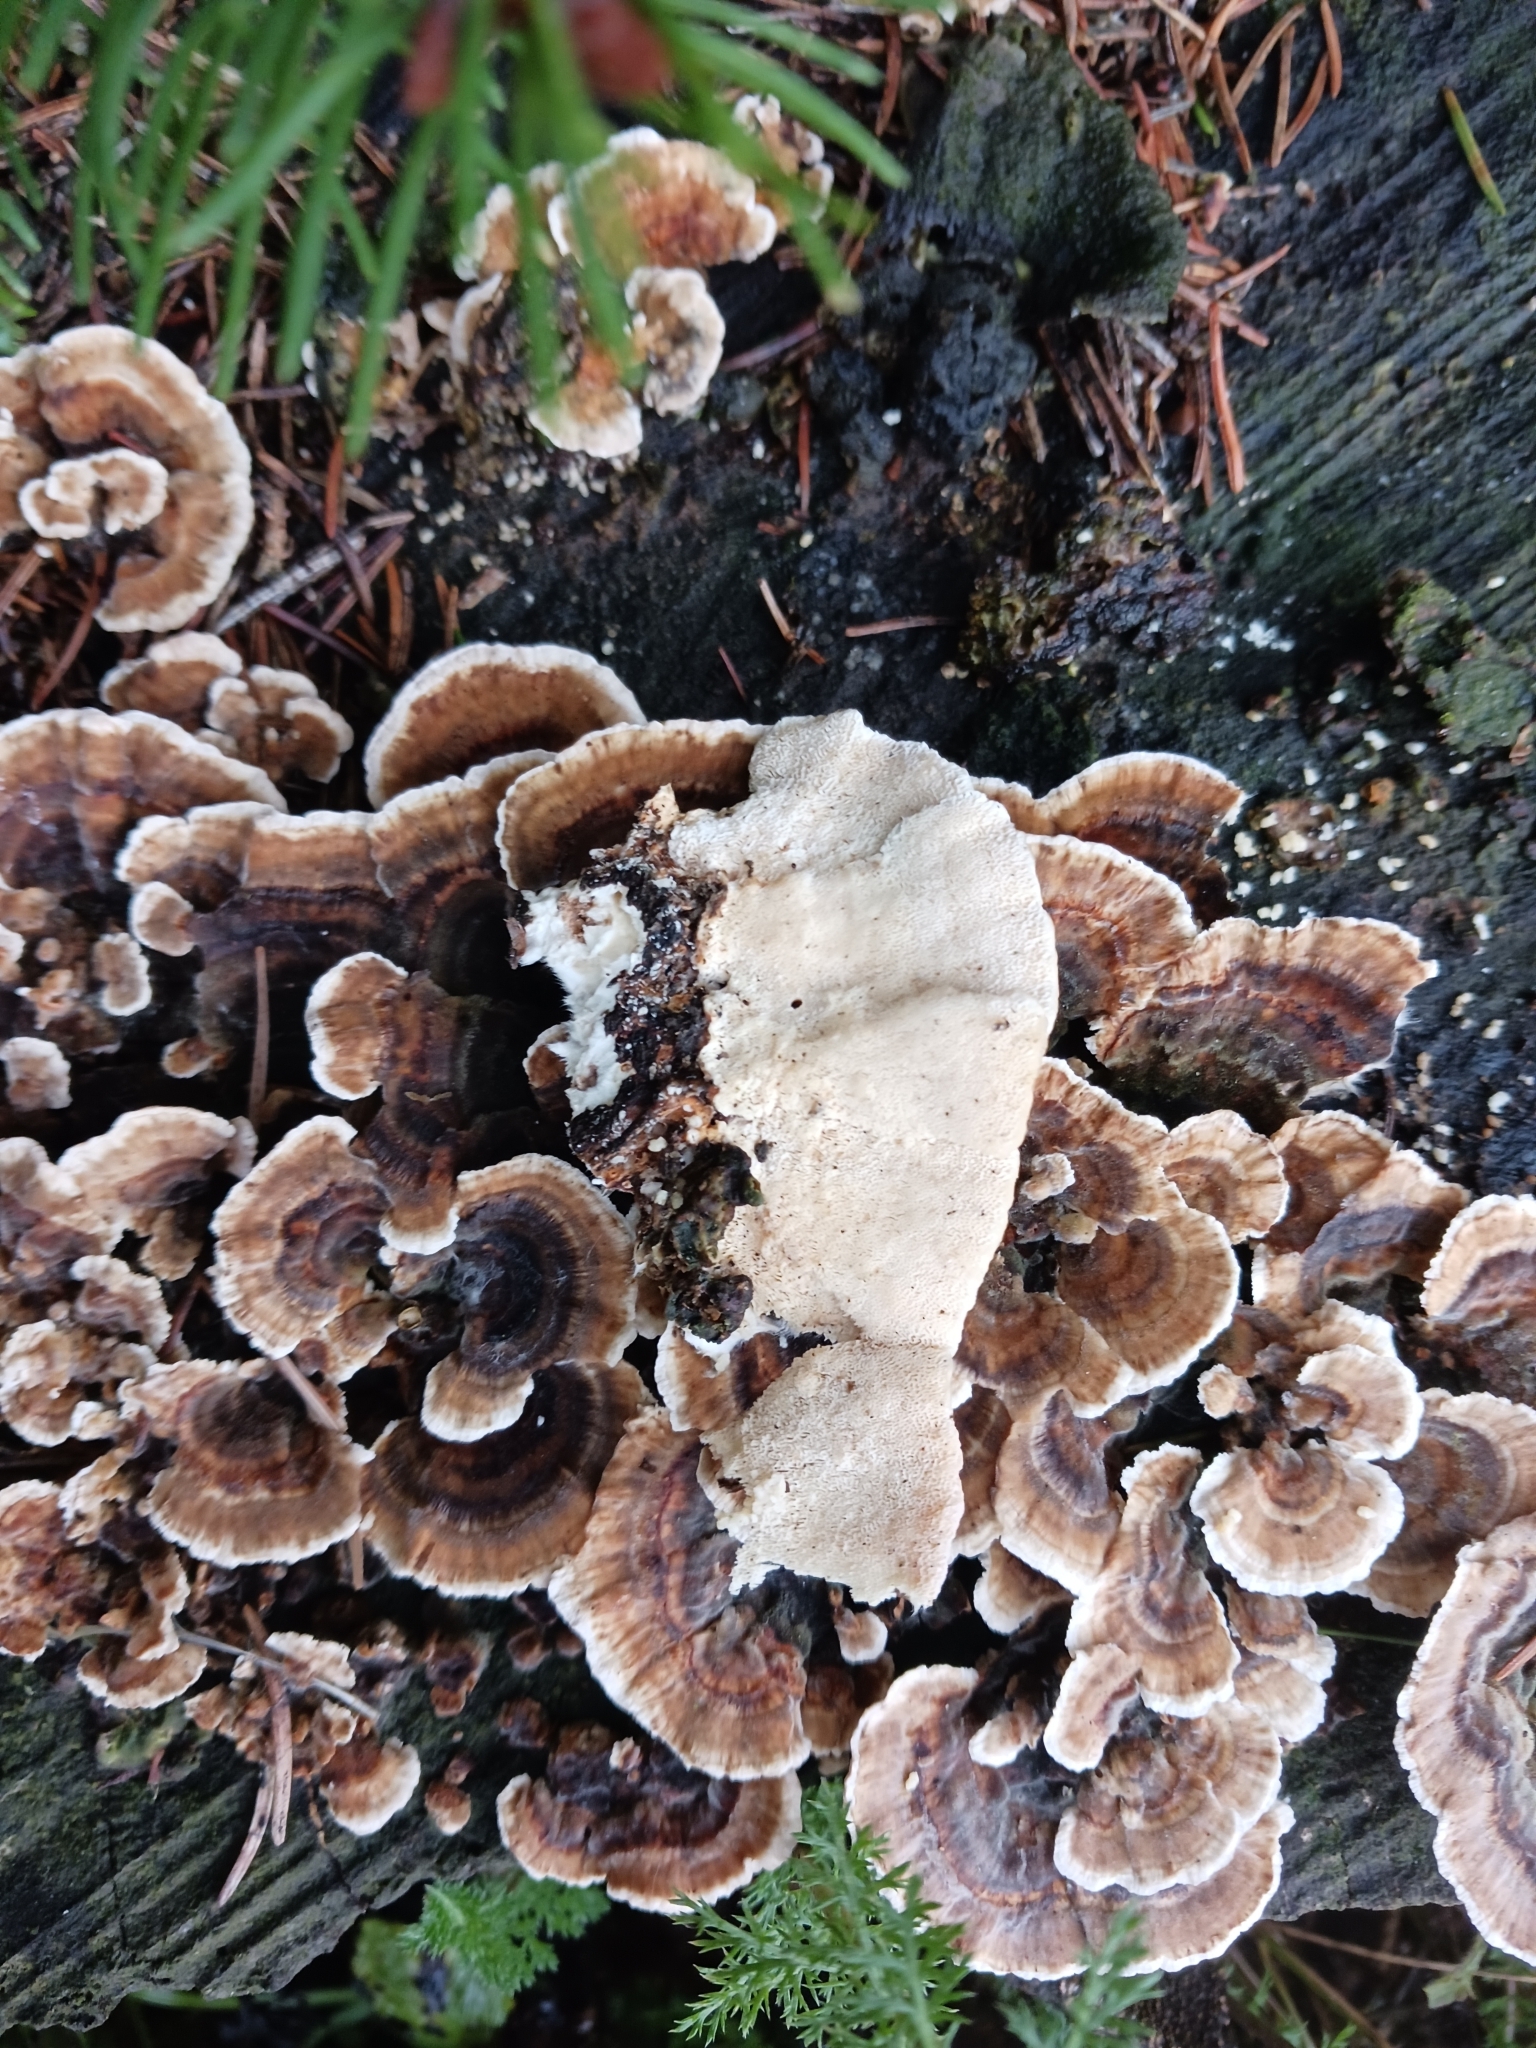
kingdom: Fungi
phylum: Basidiomycota
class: Agaricomycetes
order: Polyporales
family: Polyporaceae
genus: Trametes
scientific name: Trametes versicolor
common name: Turkeytail
